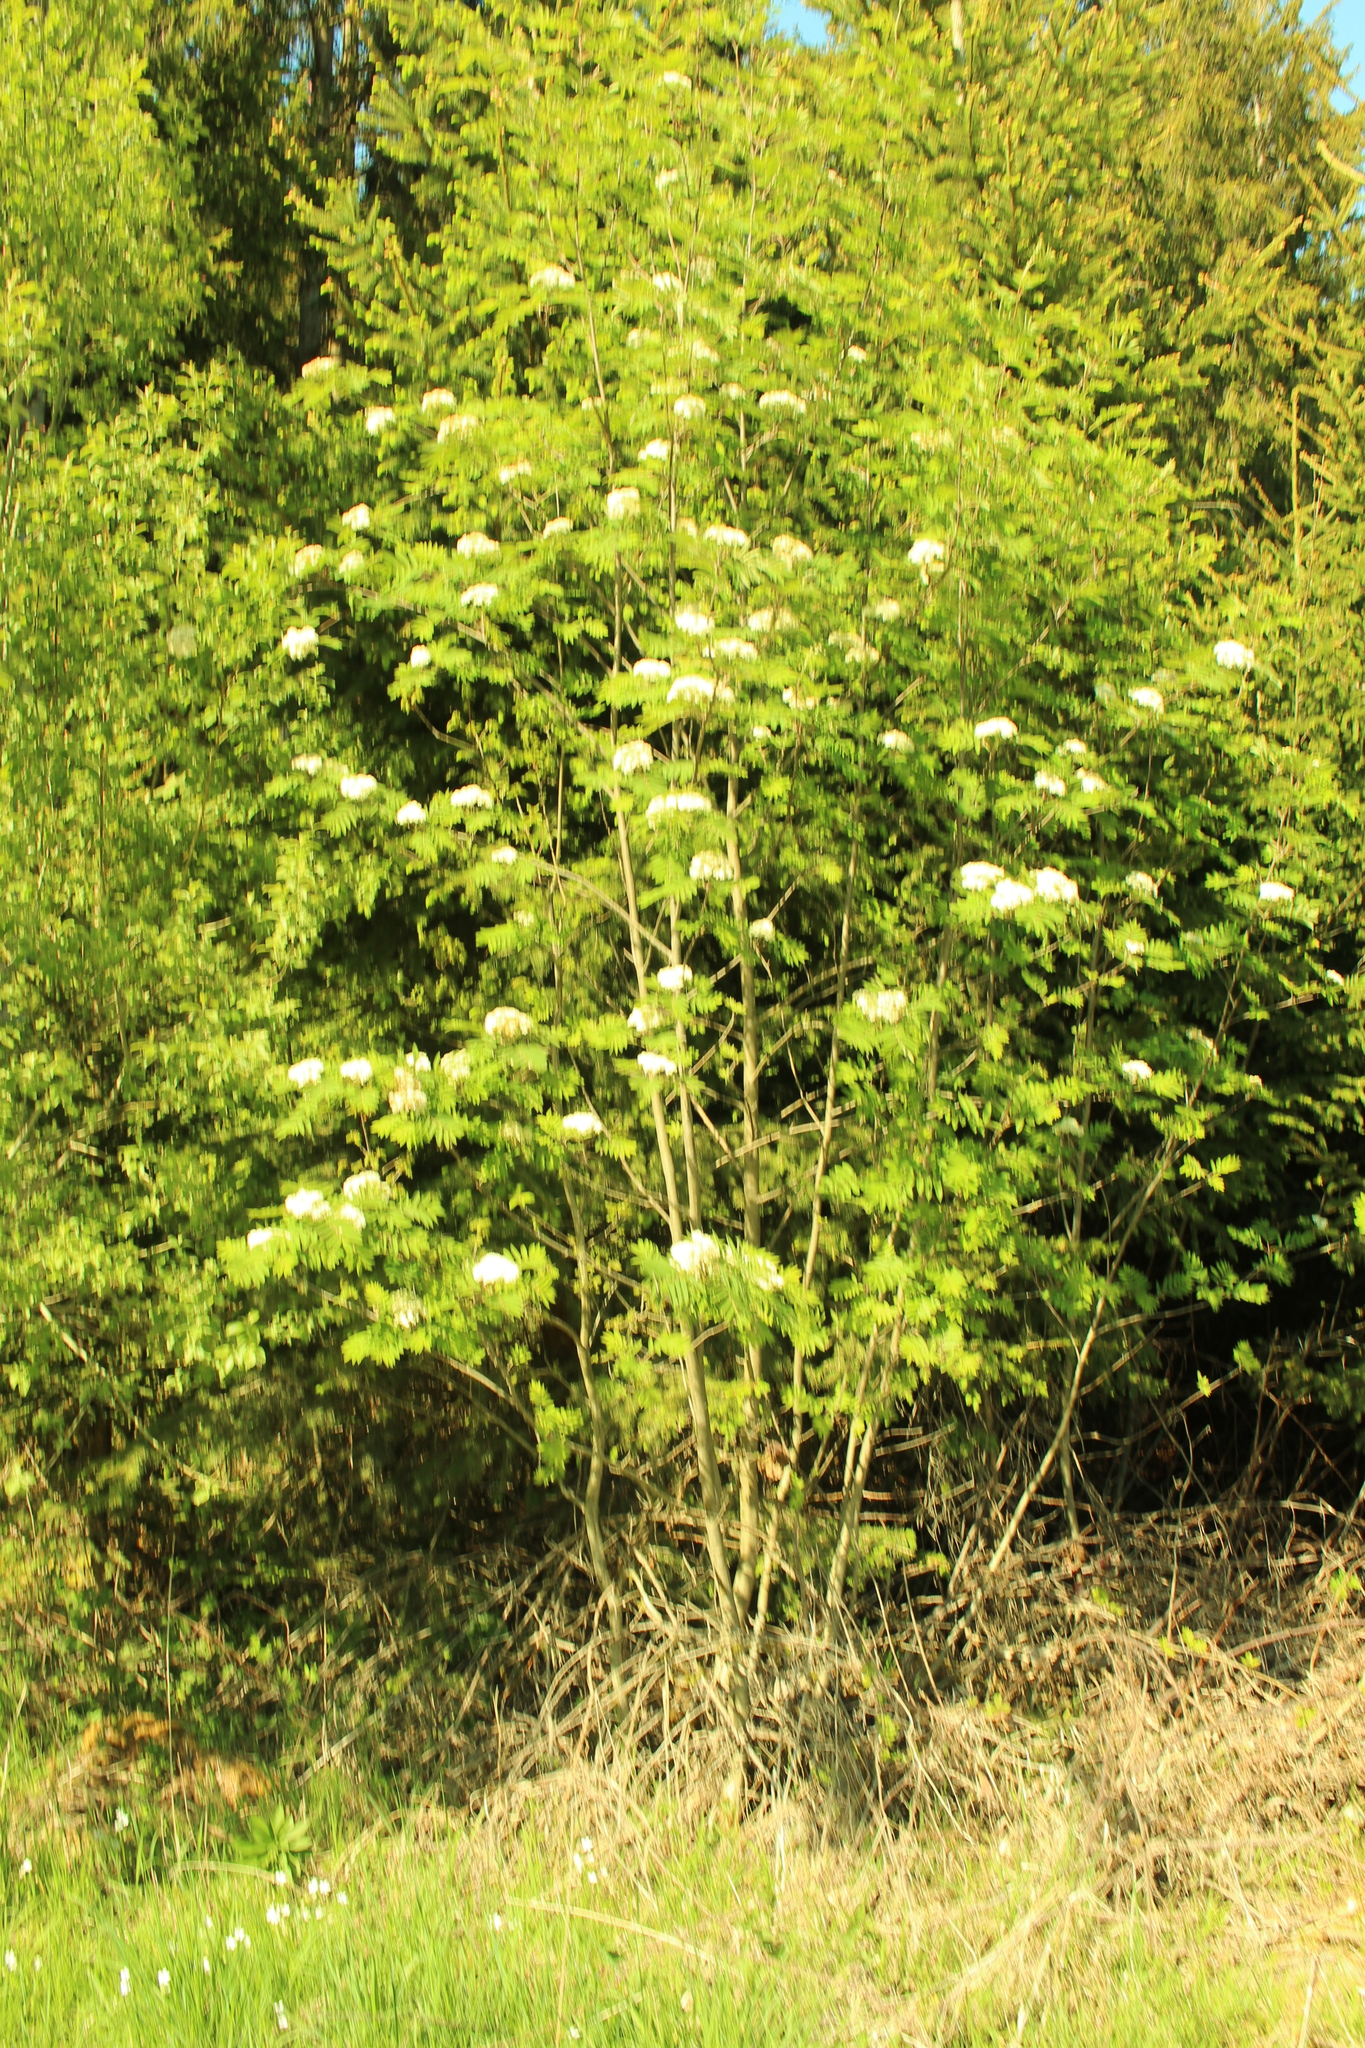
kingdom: Plantae
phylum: Tracheophyta
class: Magnoliopsida
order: Rosales
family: Rosaceae
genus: Sorbus
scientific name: Sorbus aucuparia
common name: Rowan
